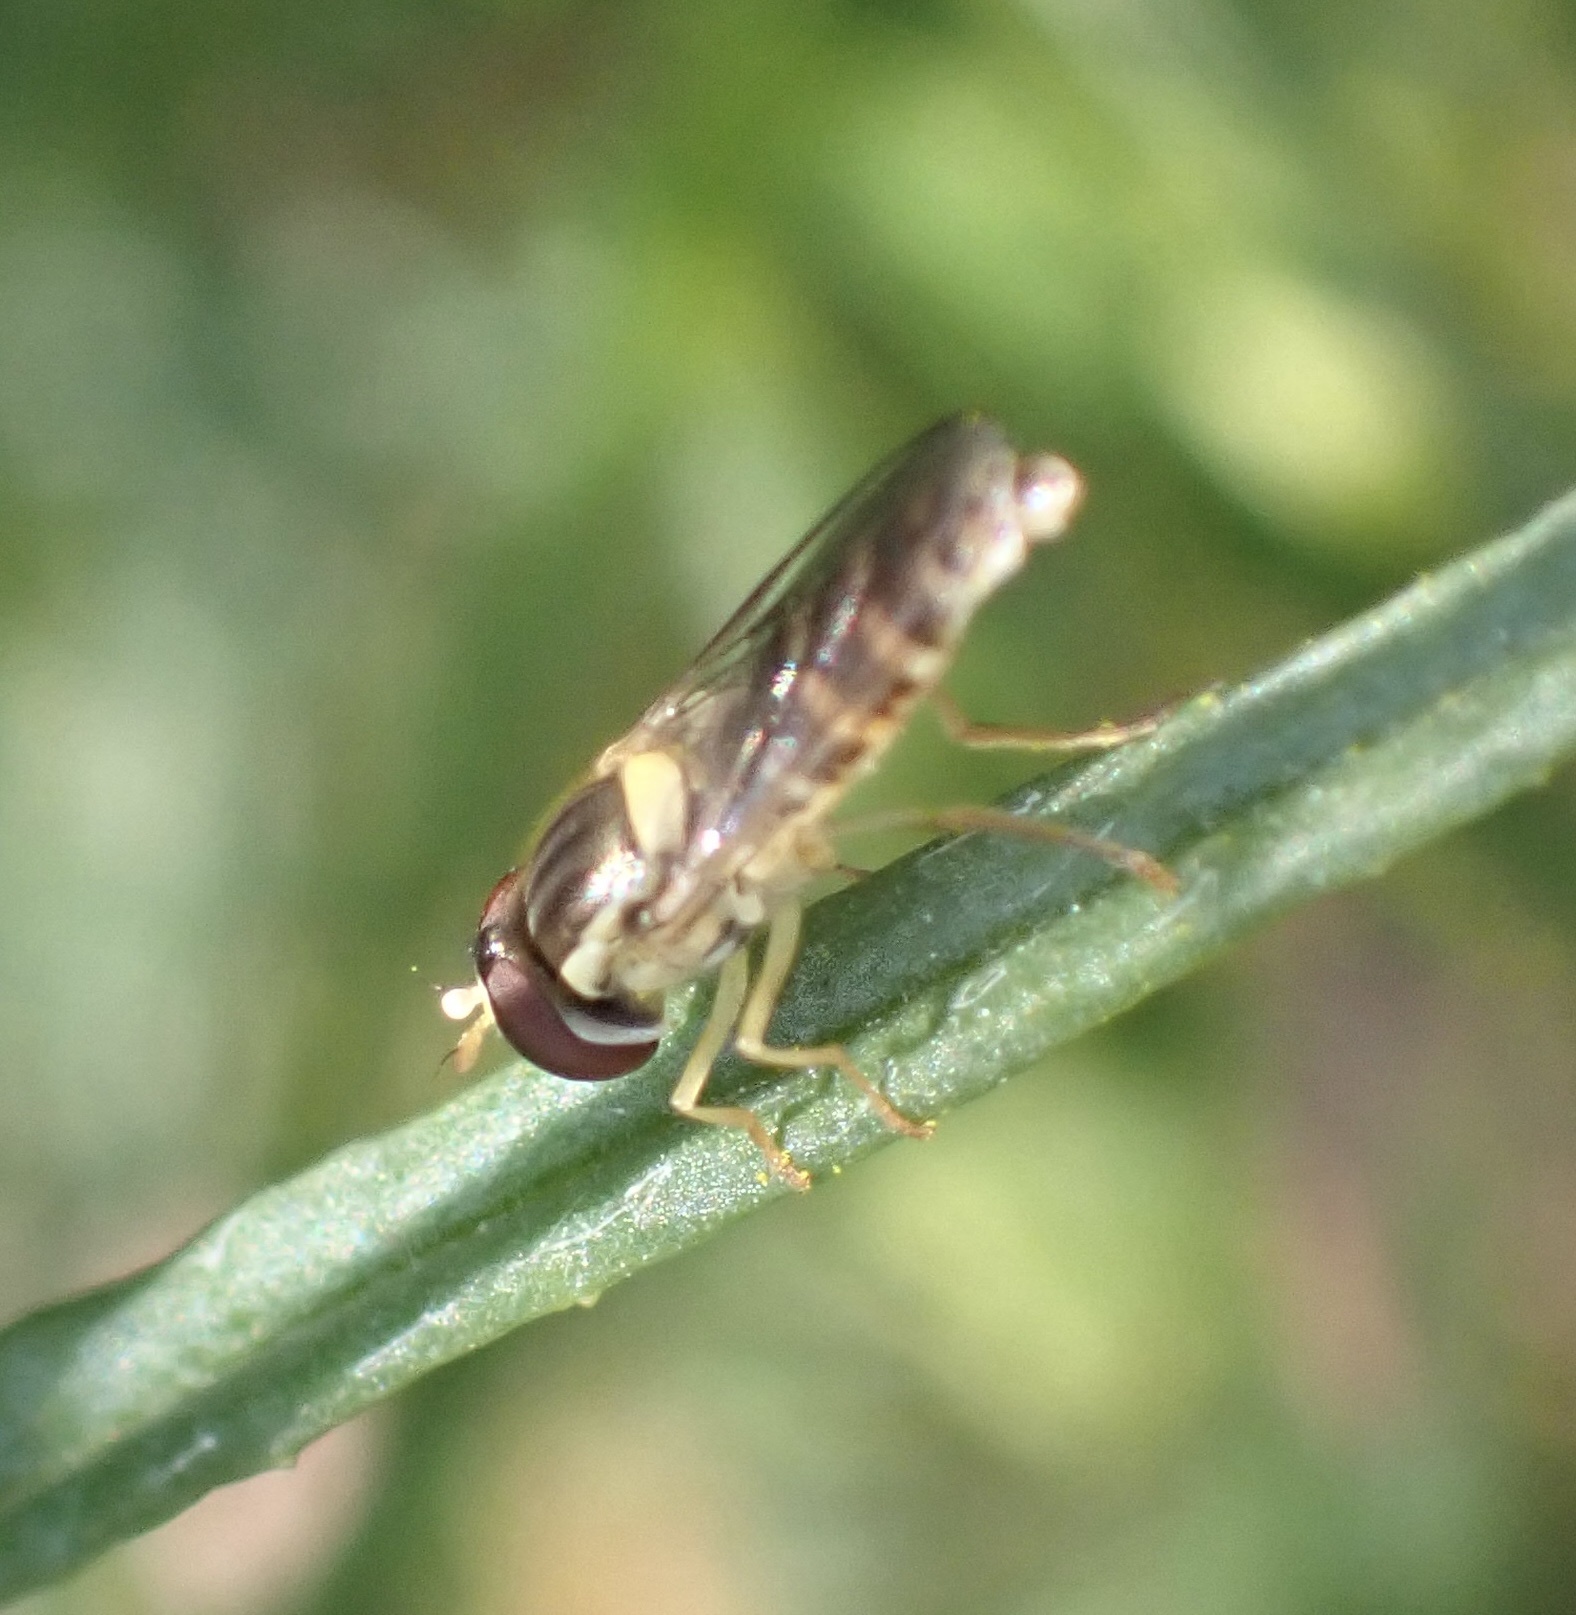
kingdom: Animalia
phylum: Arthropoda
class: Insecta
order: Diptera
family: Syrphidae
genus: Sphaerophoria
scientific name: Sphaerophoria
